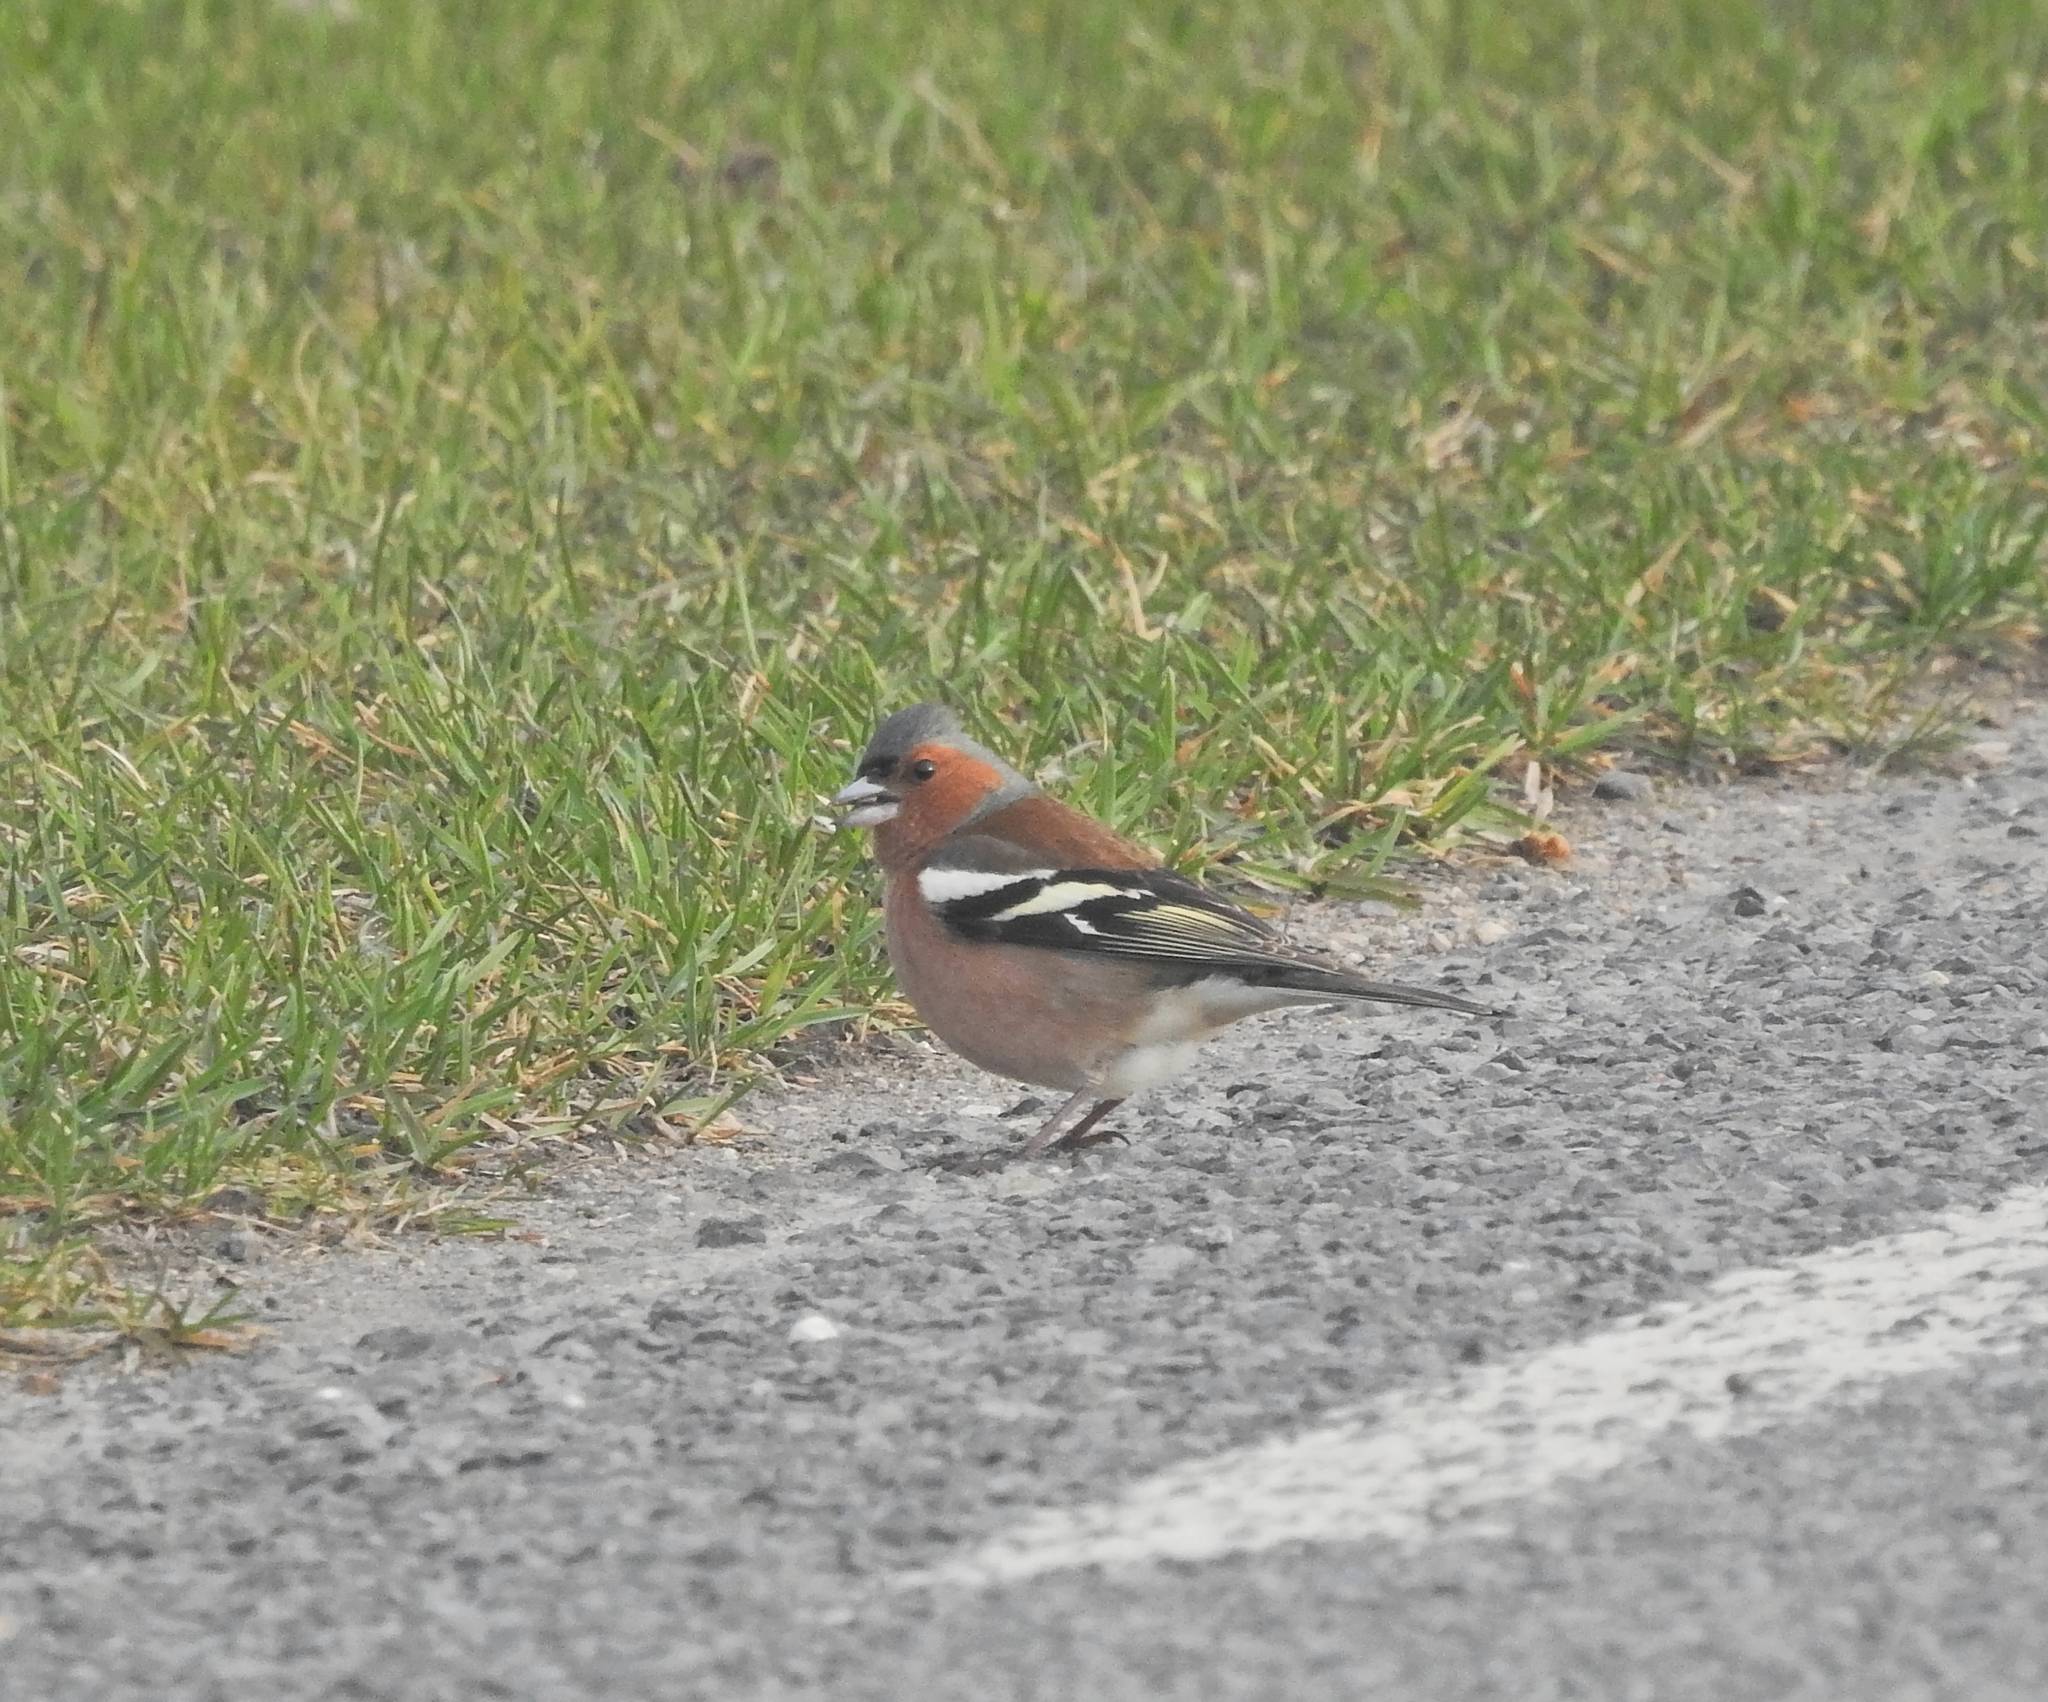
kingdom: Animalia
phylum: Chordata
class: Aves
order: Passeriformes
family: Fringillidae
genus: Fringilla
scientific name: Fringilla coelebs
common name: Common chaffinch
